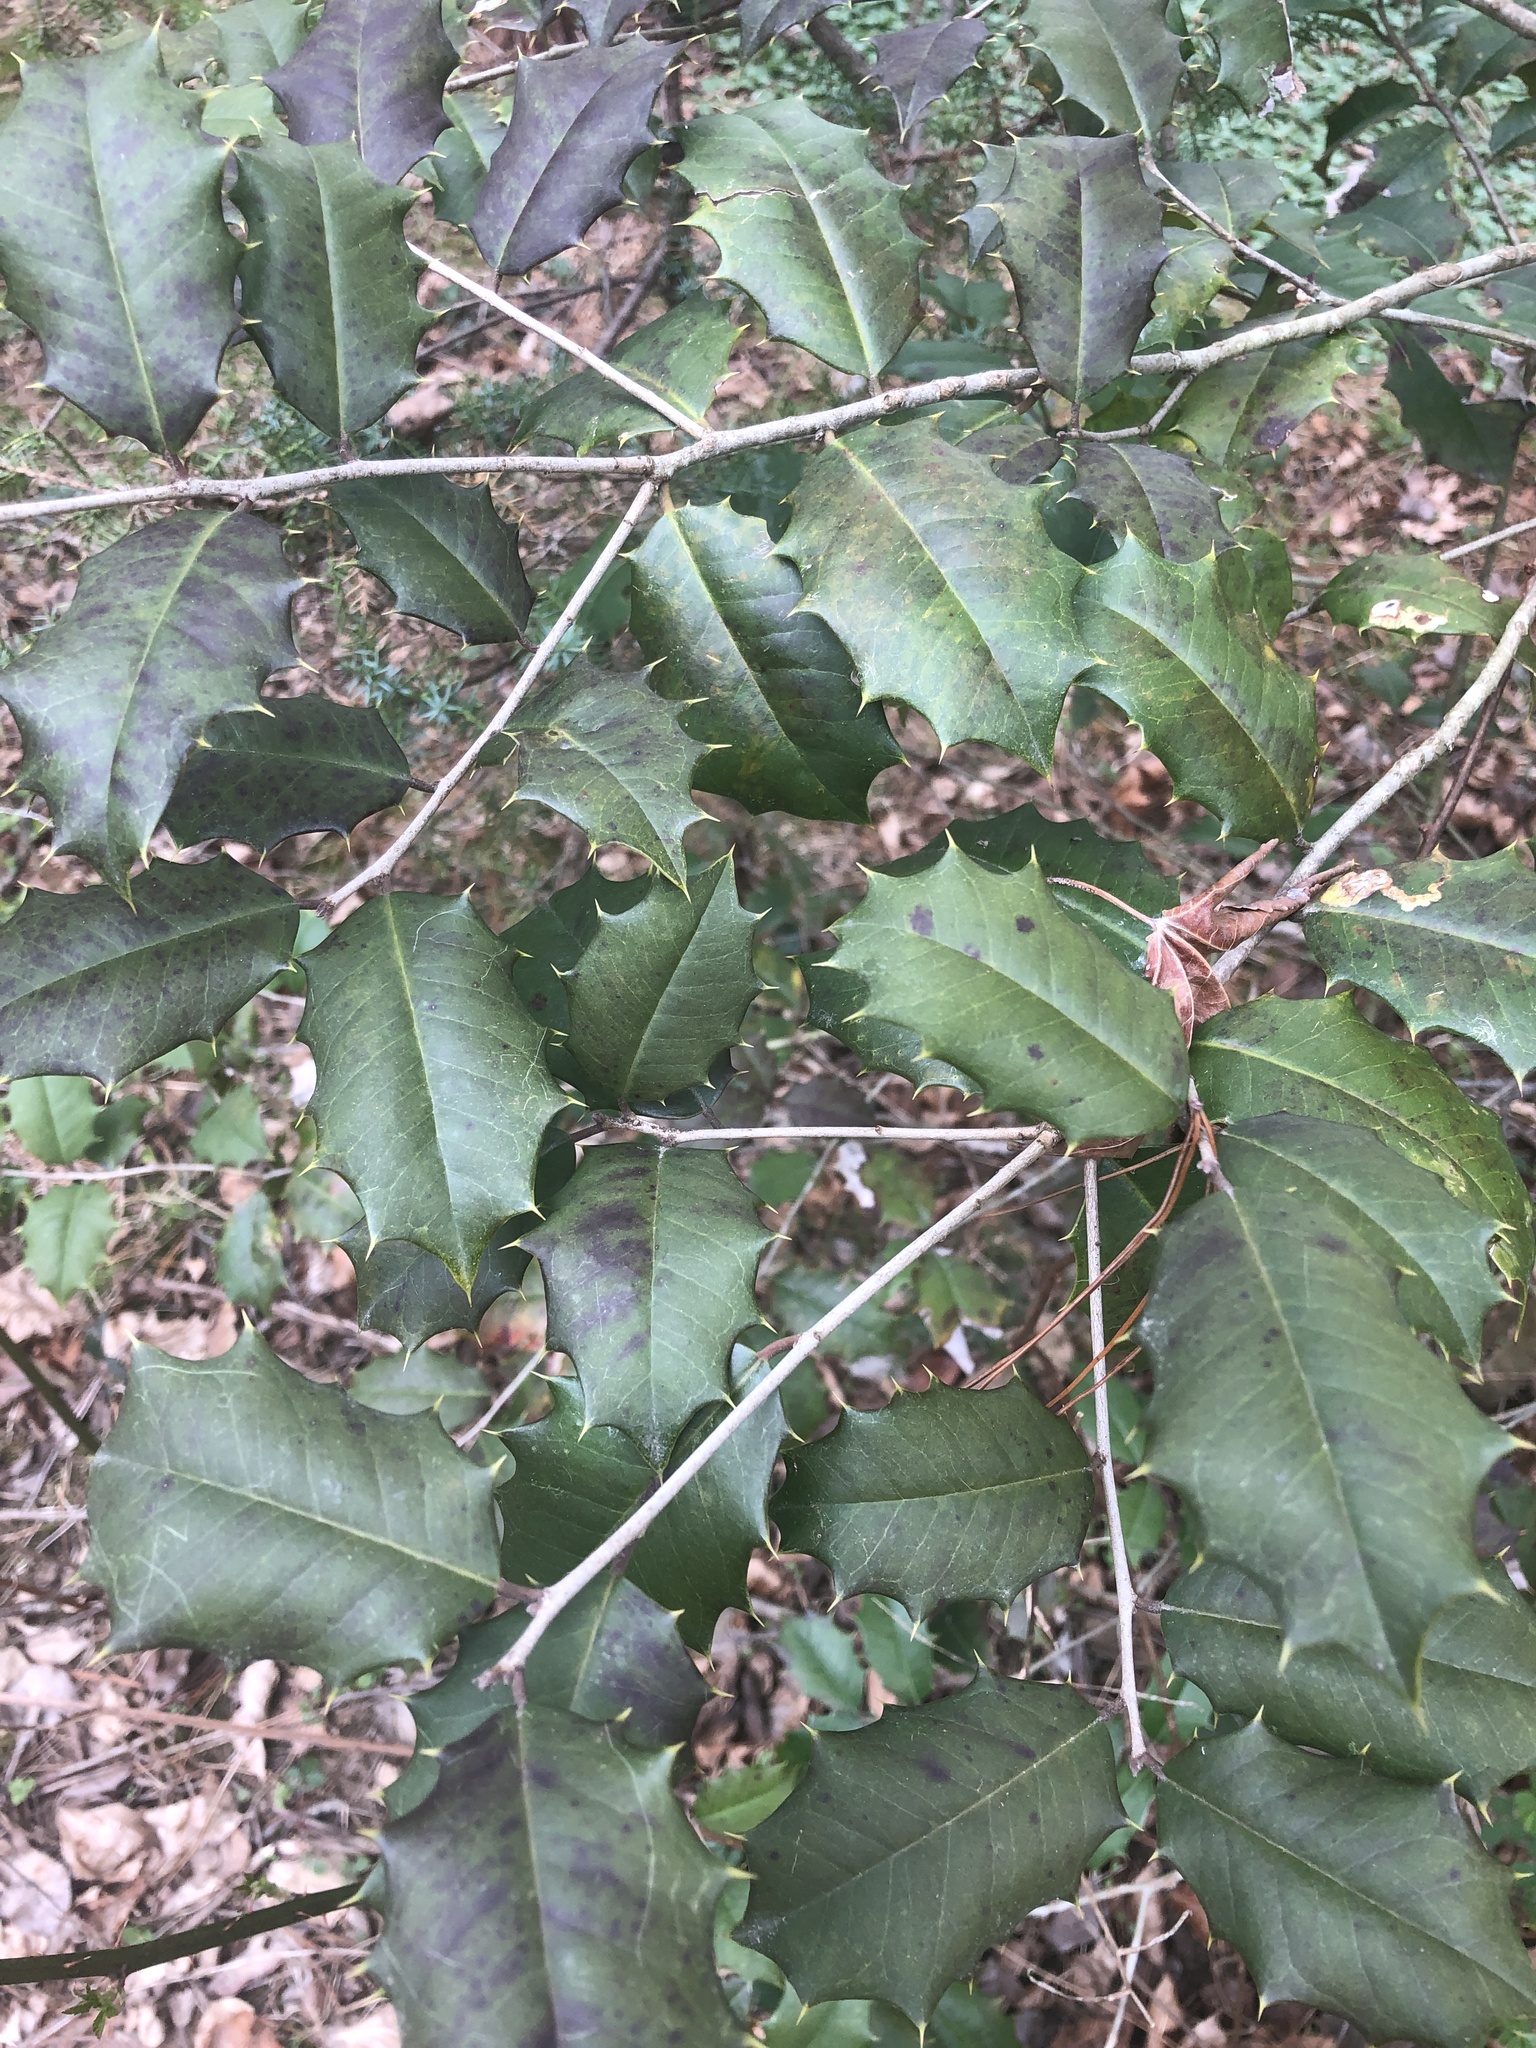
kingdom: Plantae
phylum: Tracheophyta
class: Magnoliopsida
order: Aquifoliales
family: Aquifoliaceae
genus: Ilex
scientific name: Ilex opaca
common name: American holly
